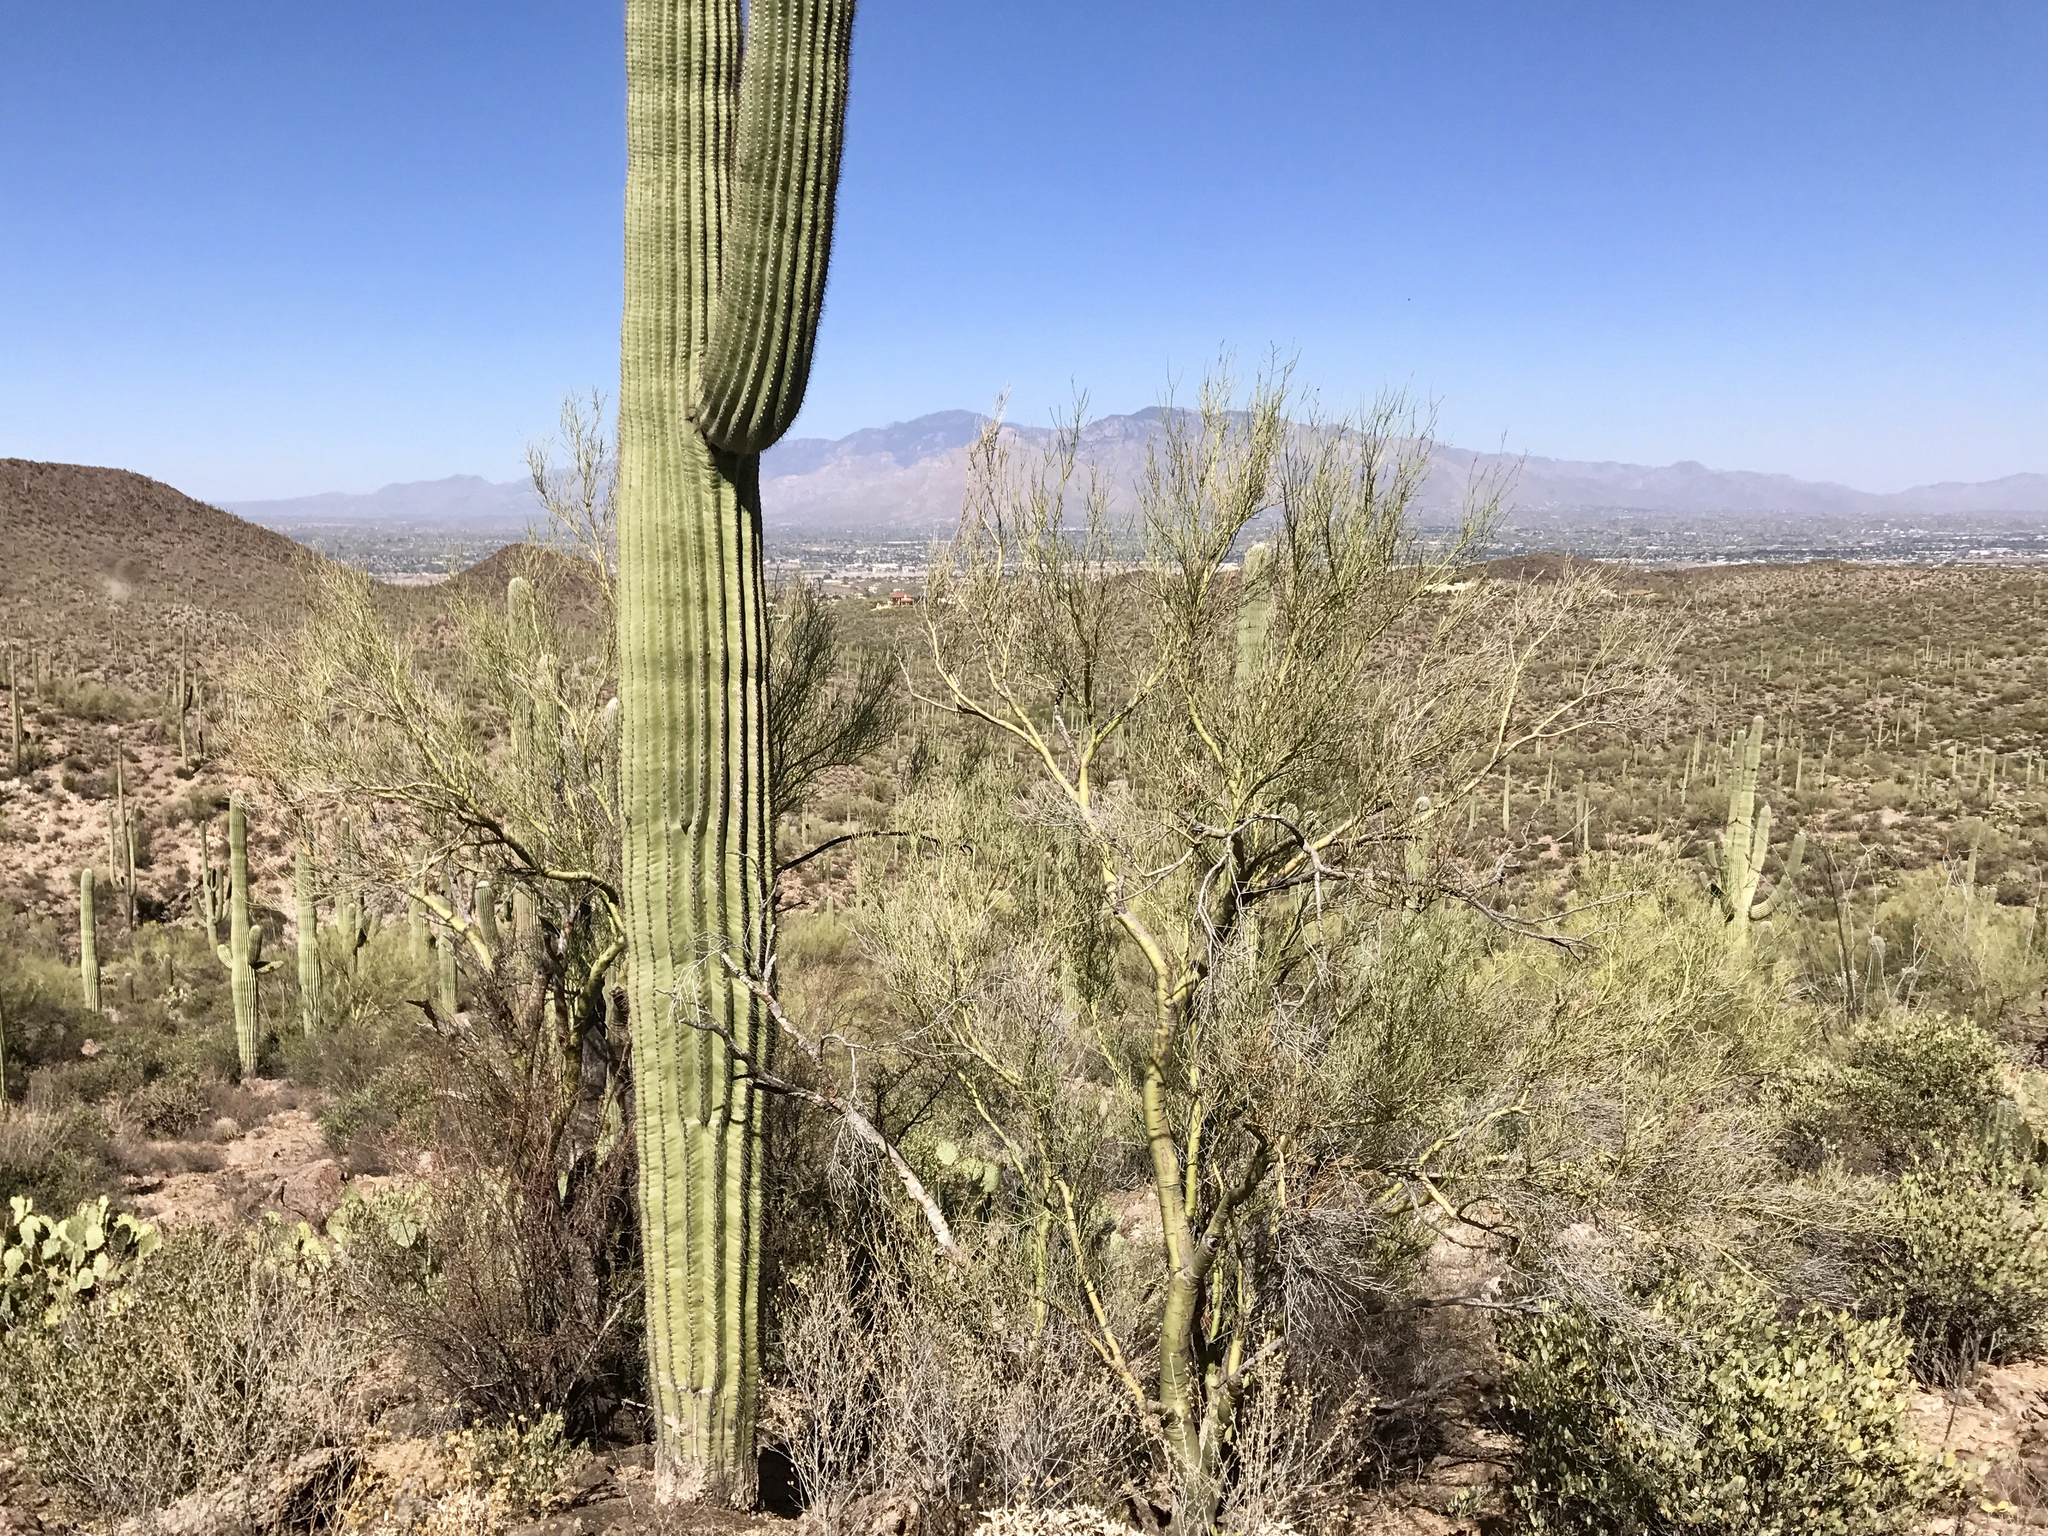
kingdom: Plantae
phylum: Tracheophyta
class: Magnoliopsida
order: Fabales
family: Fabaceae
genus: Parkinsonia
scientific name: Parkinsonia microphylla
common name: Yellow paloverde
